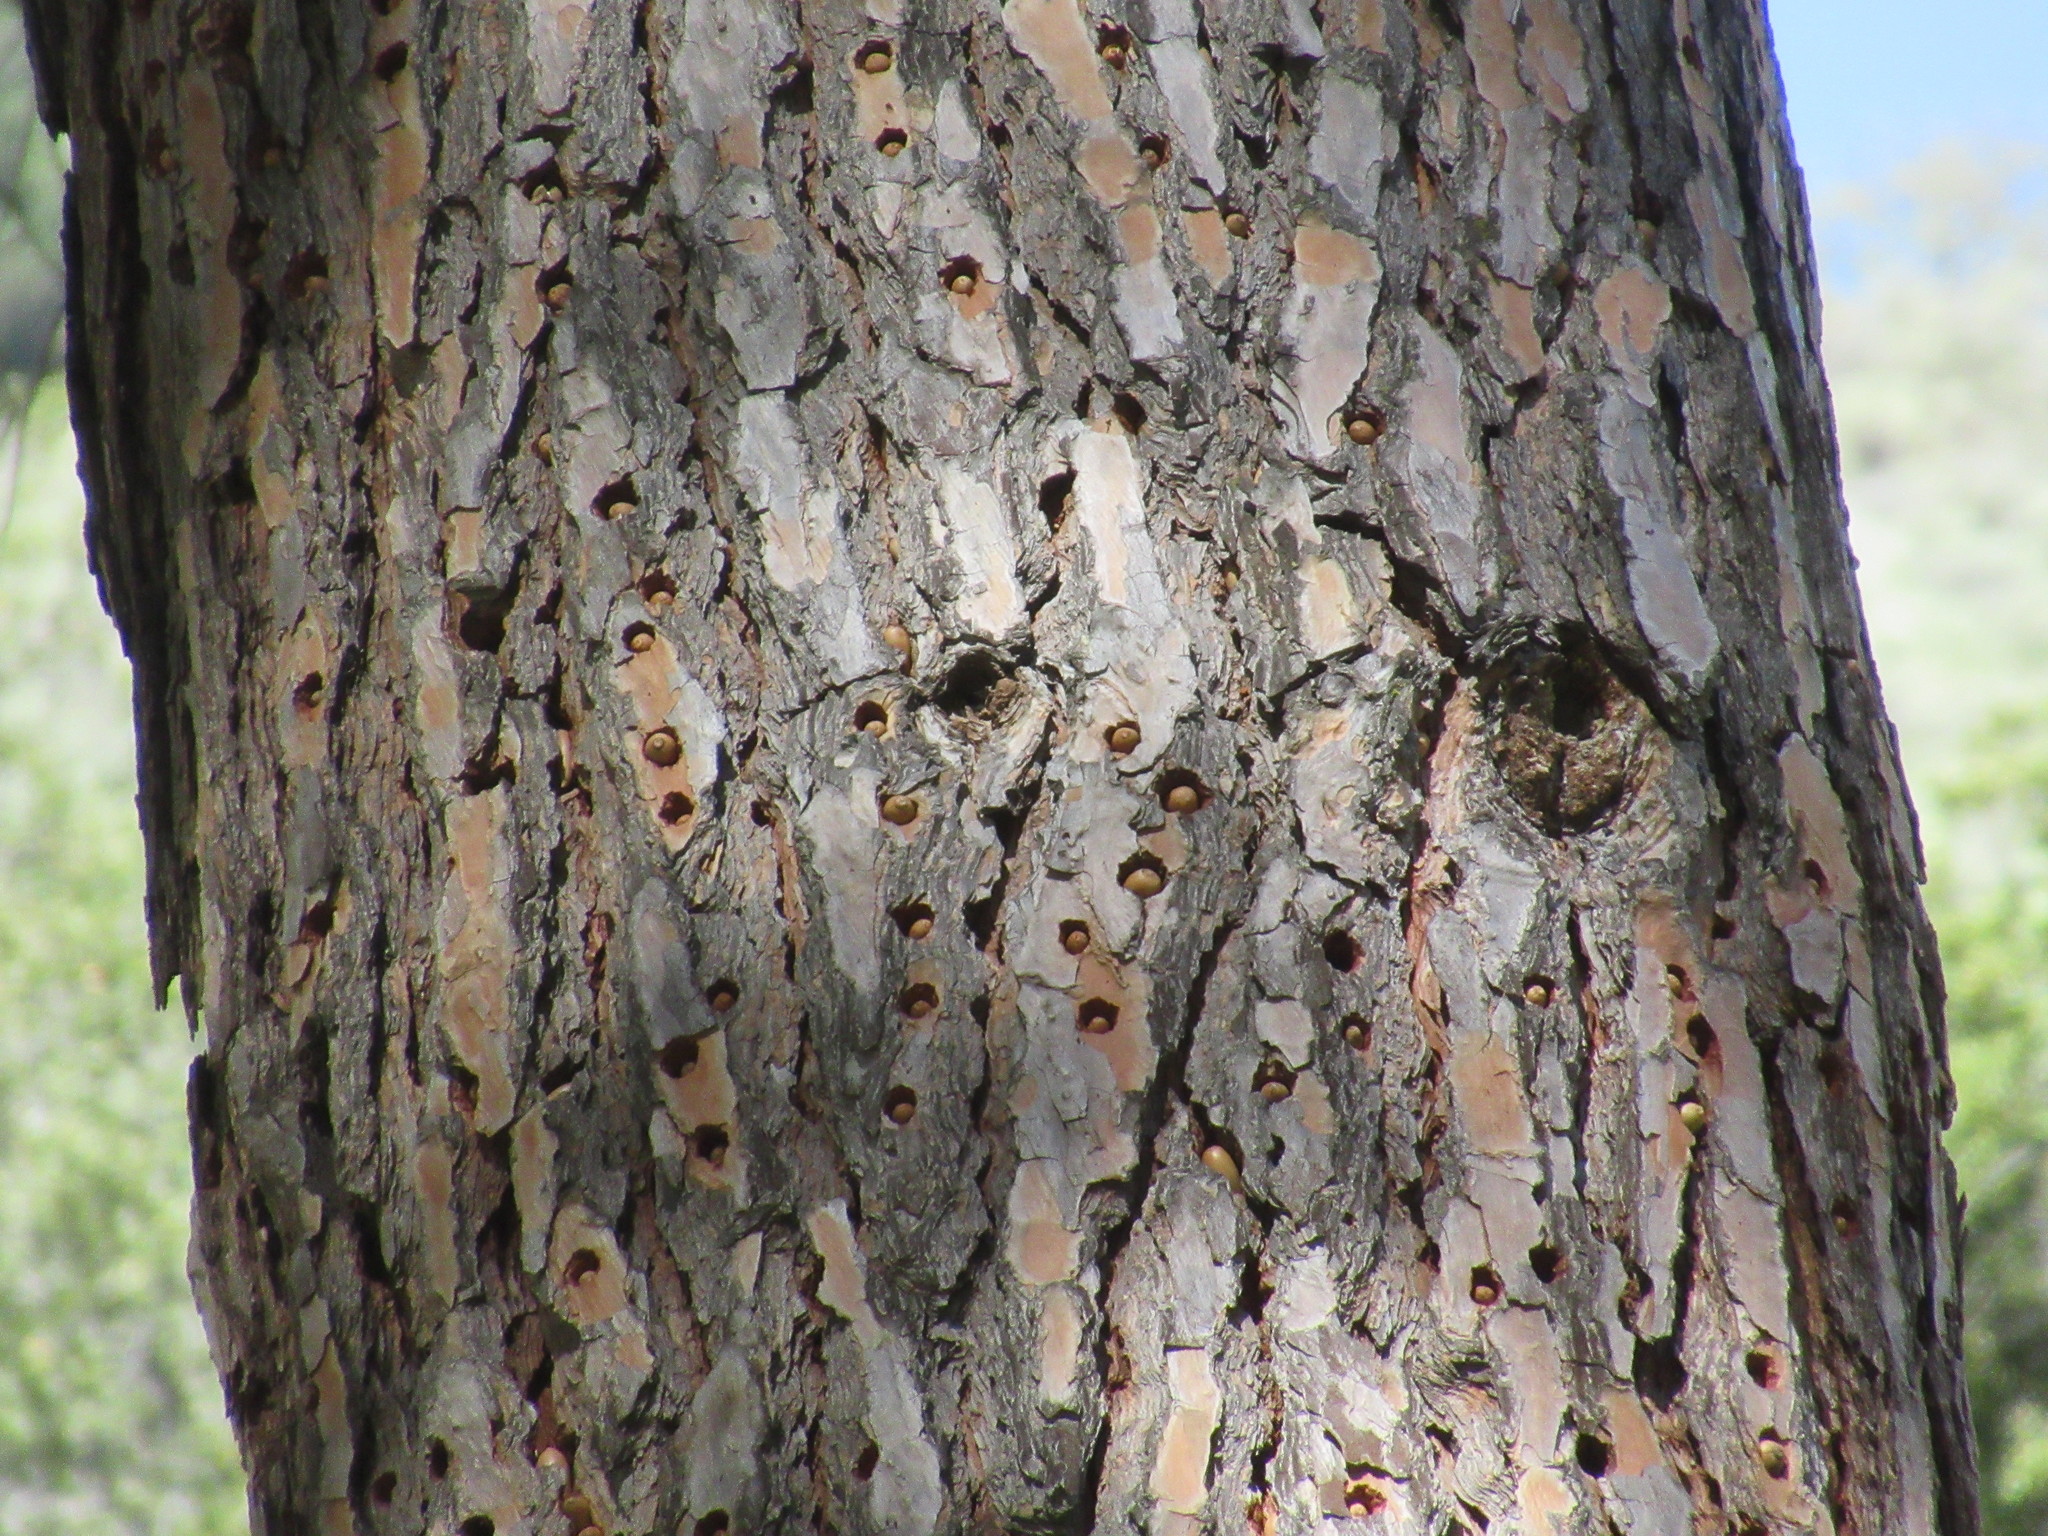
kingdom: Animalia
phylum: Chordata
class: Aves
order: Piciformes
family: Picidae
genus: Melanerpes
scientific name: Melanerpes formicivorus
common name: Acorn woodpecker
